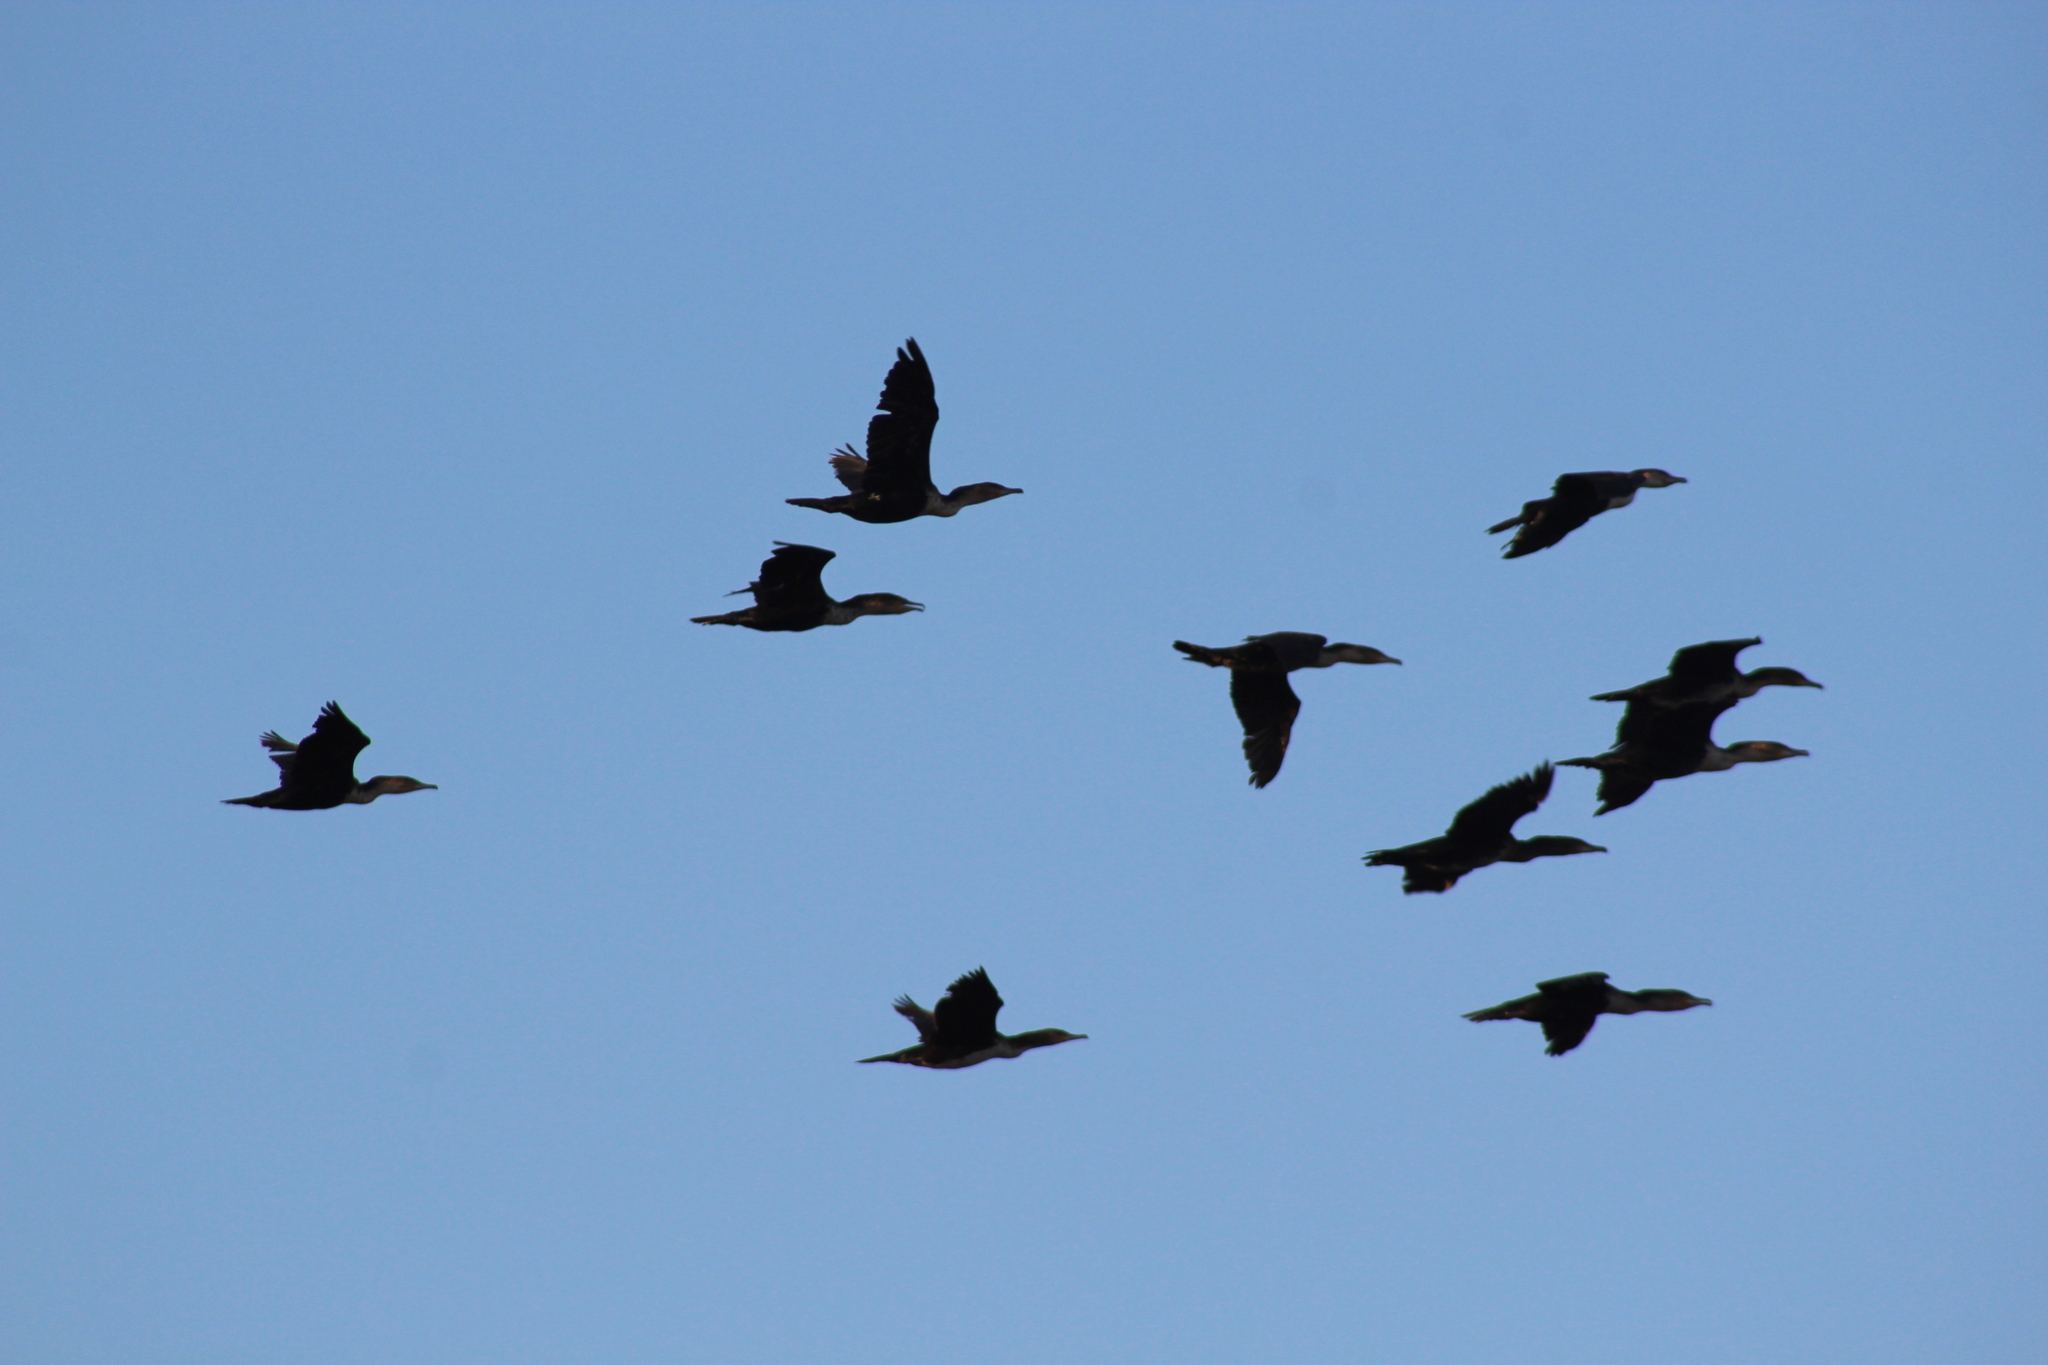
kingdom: Animalia
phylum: Chordata
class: Aves
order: Suliformes
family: Phalacrocoracidae
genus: Phalacrocorax
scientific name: Phalacrocorax carbo
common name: Great cormorant
